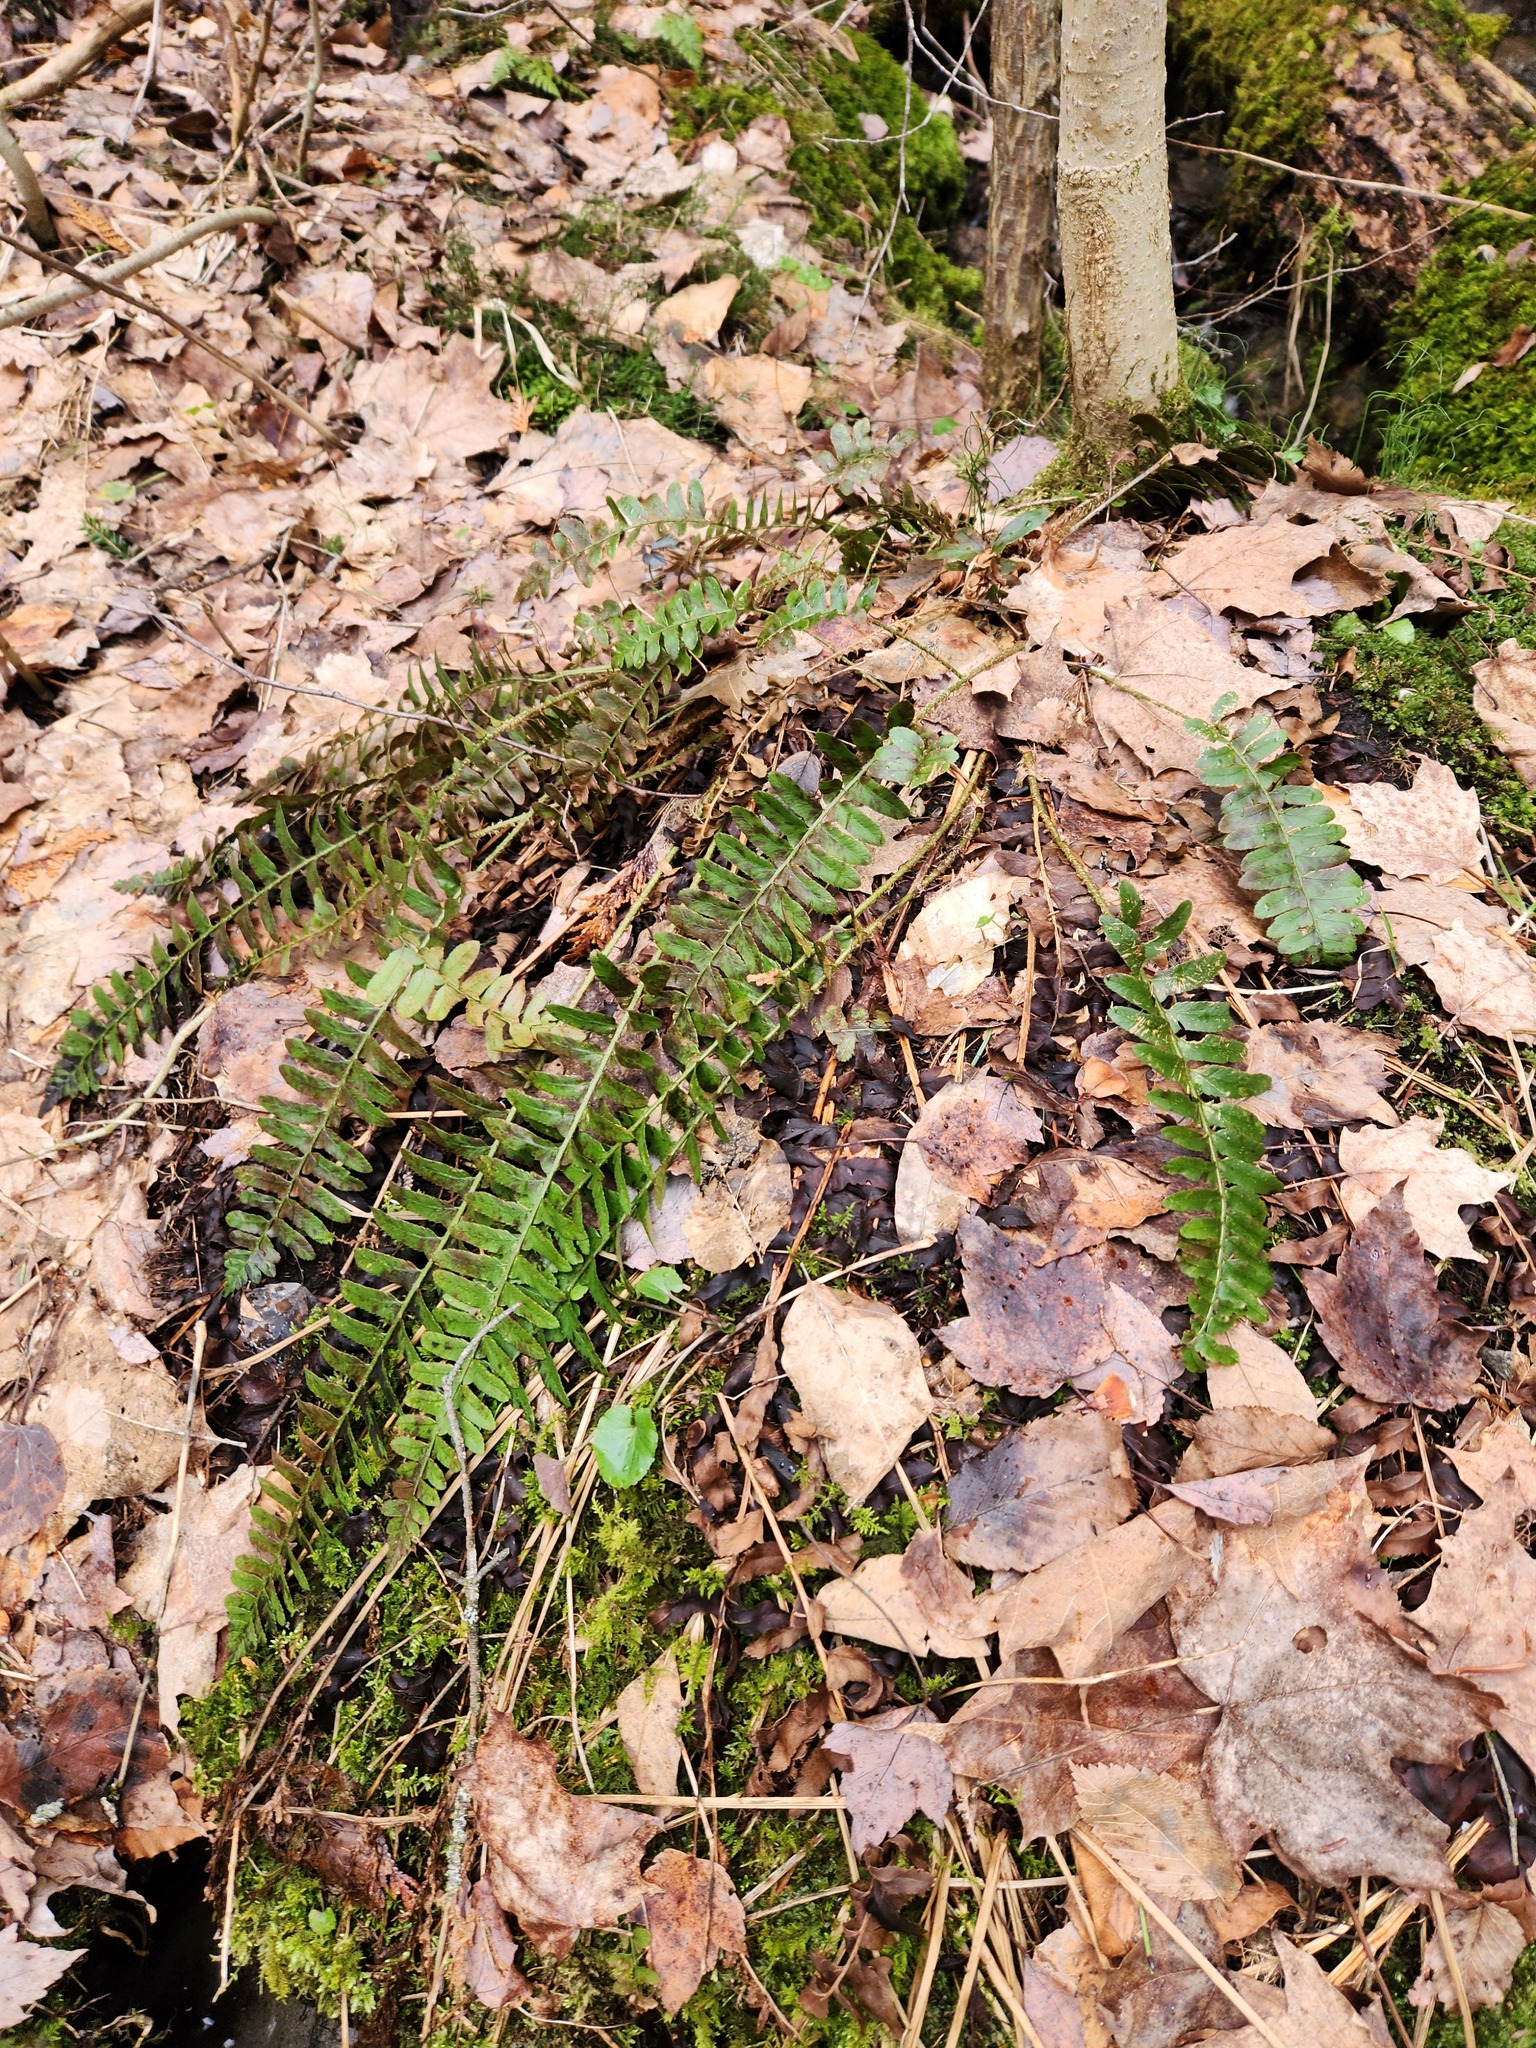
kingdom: Plantae
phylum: Tracheophyta
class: Polypodiopsida
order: Polypodiales
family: Dryopteridaceae
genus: Polystichum
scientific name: Polystichum acrostichoides
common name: Christmas fern
